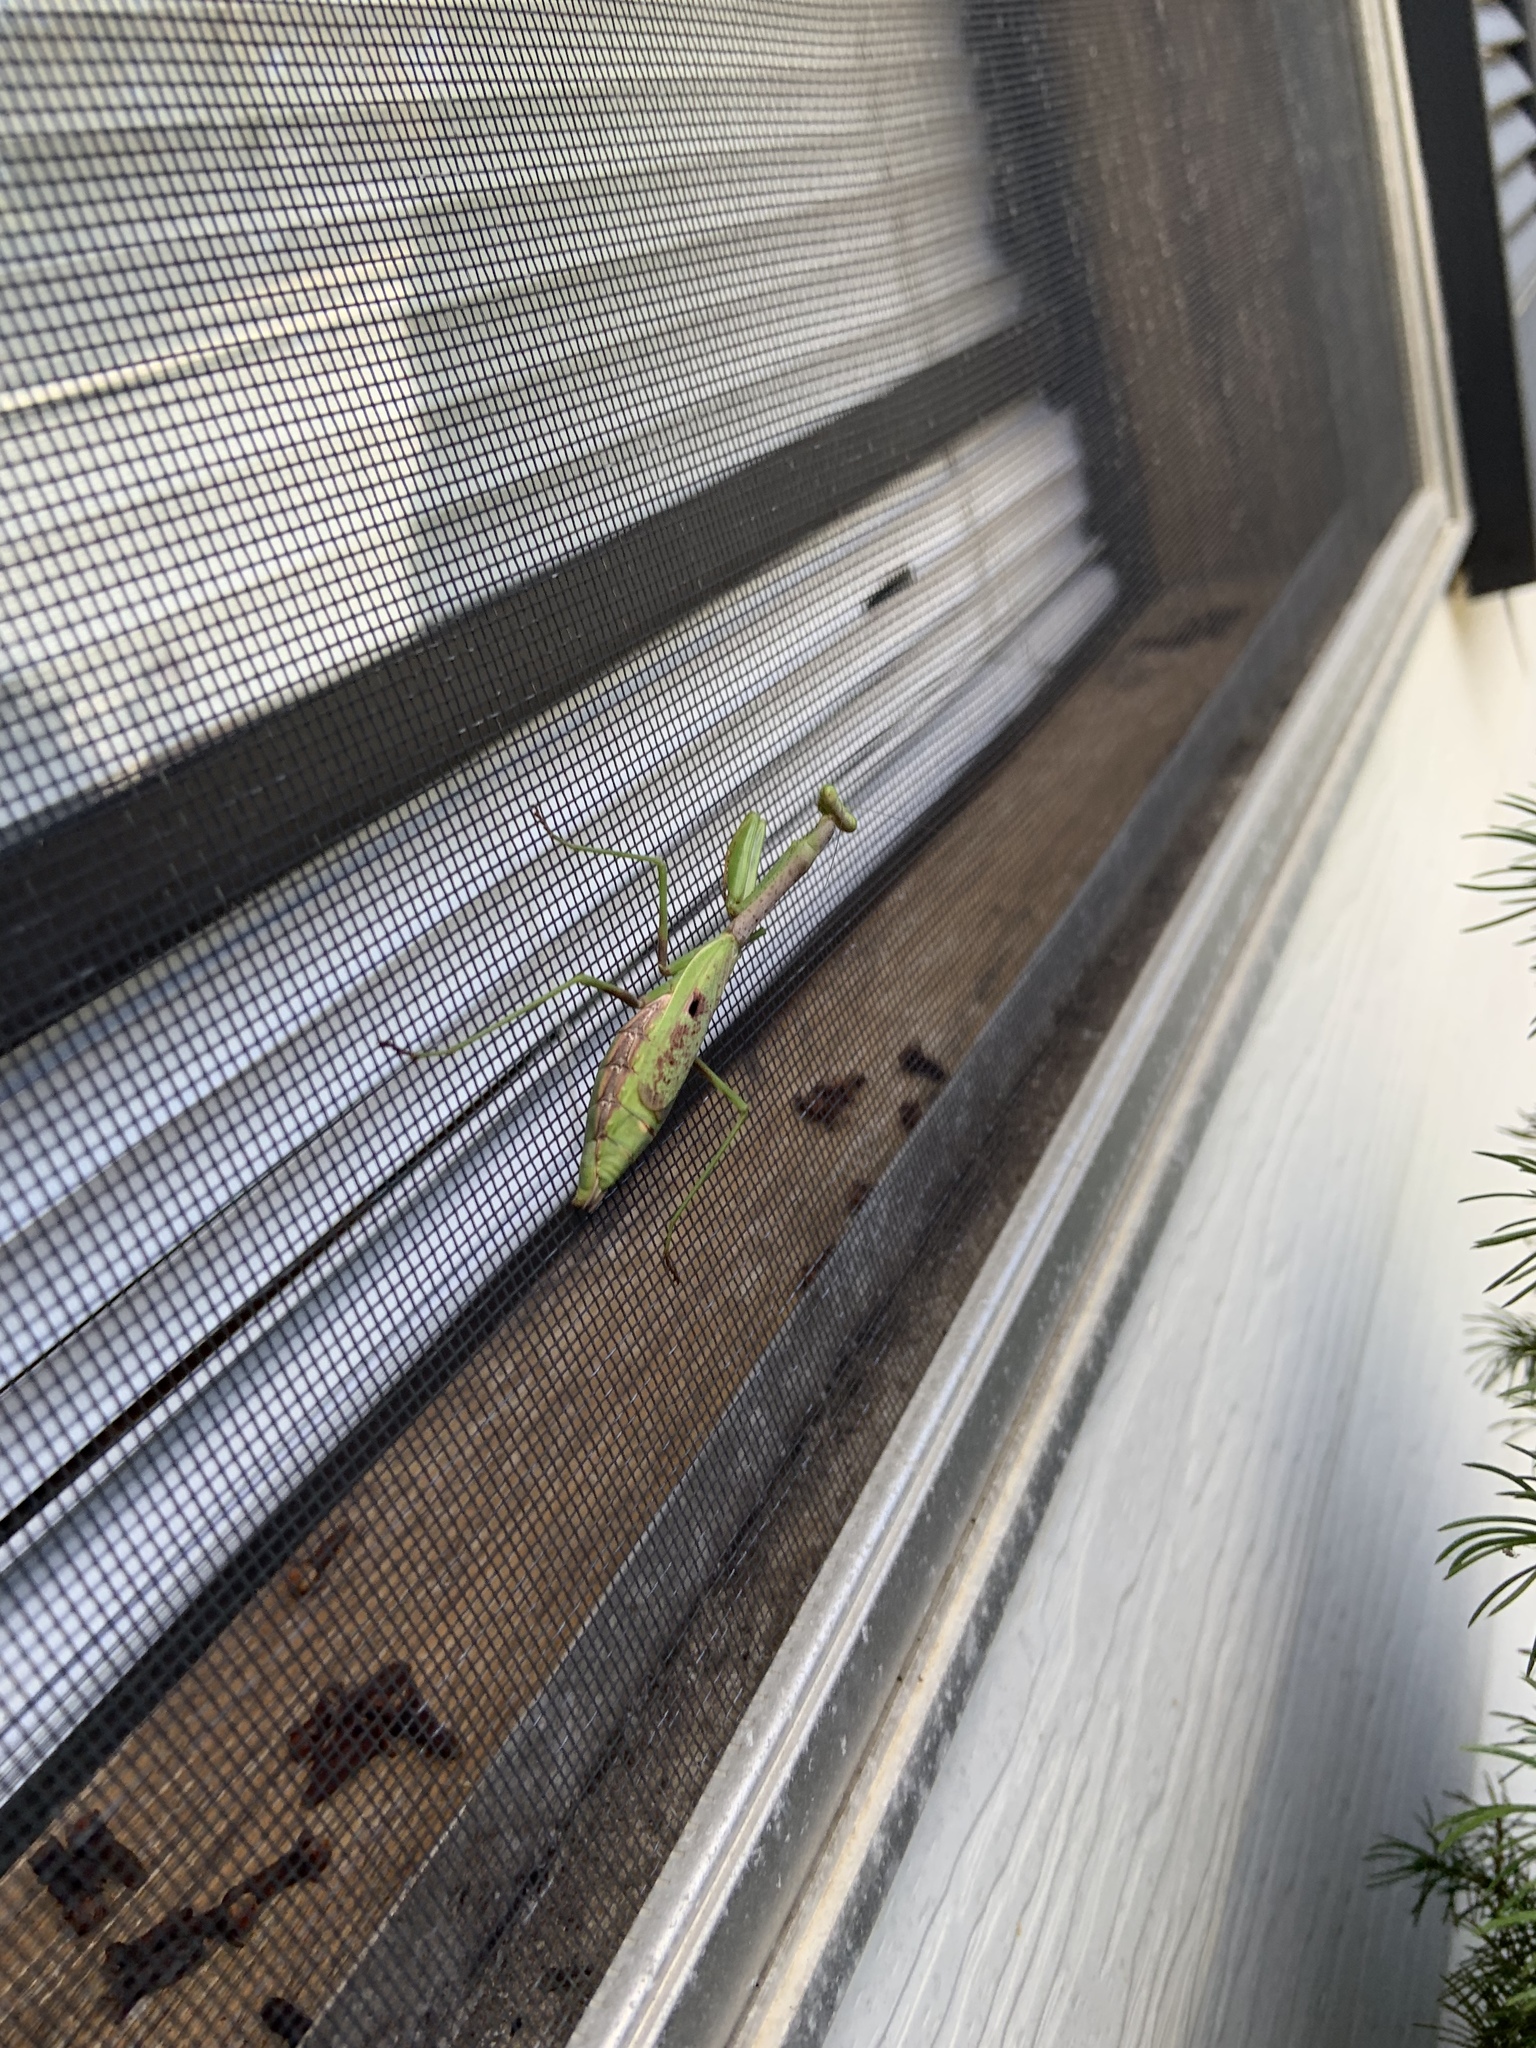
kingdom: Animalia
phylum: Arthropoda
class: Insecta
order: Mantodea
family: Mantidae
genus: Stagmomantis
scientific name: Stagmomantis carolina
